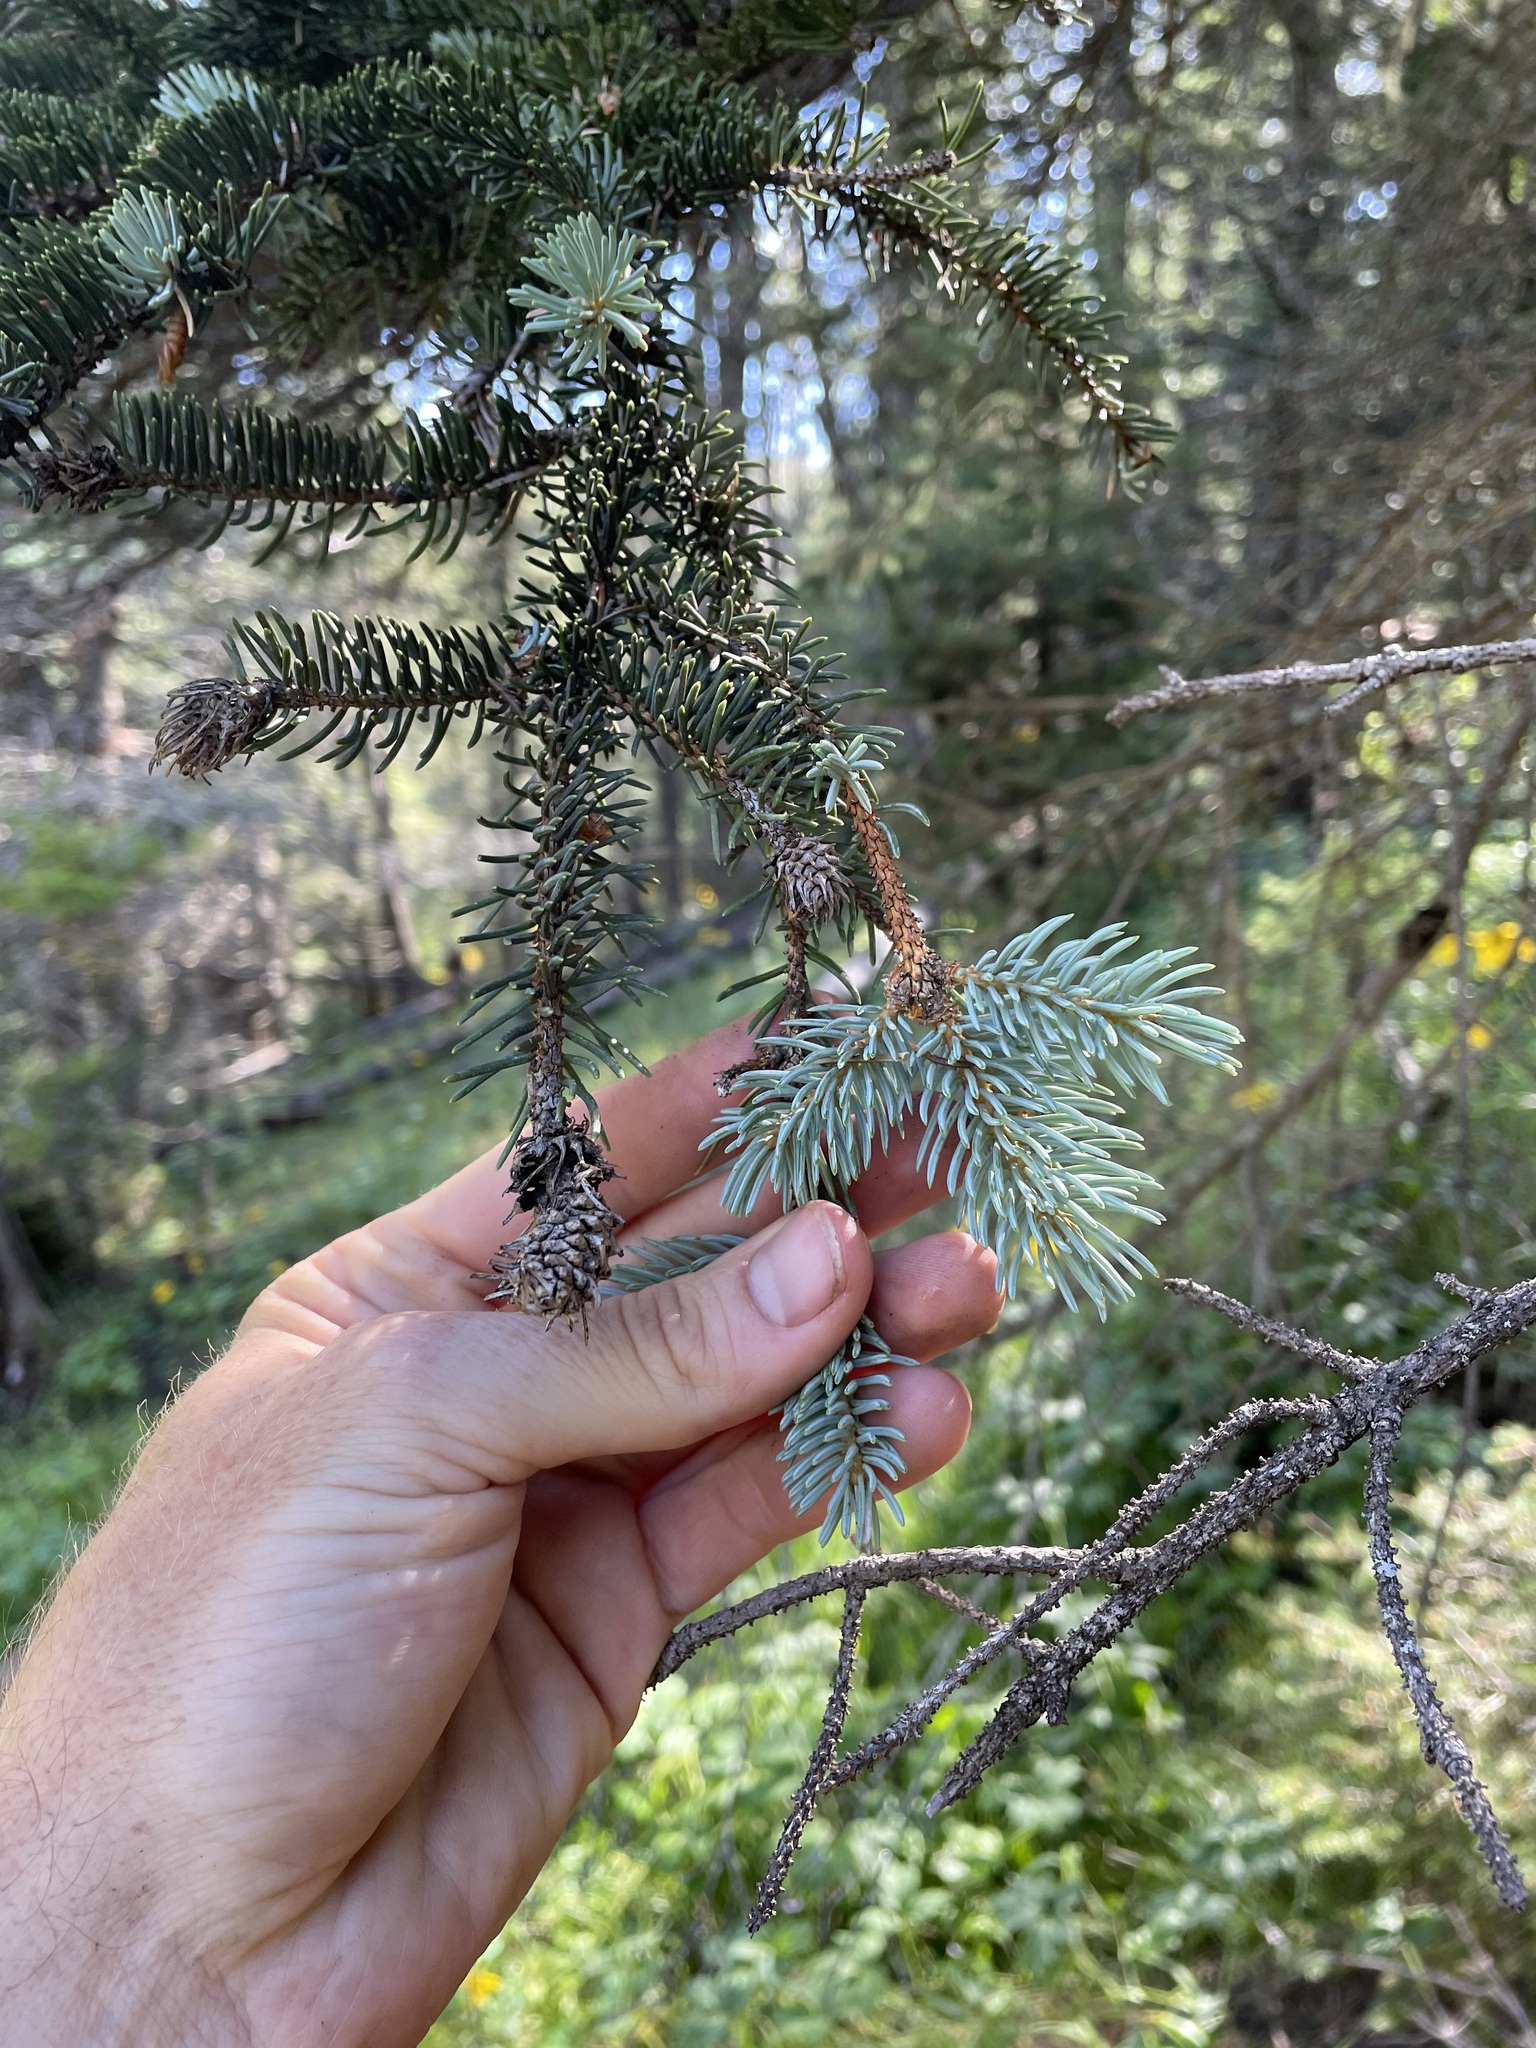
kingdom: Plantae
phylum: Tracheophyta
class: Pinopsida
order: Pinales
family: Pinaceae
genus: Picea
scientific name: Picea pungens
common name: Colorado spruce
